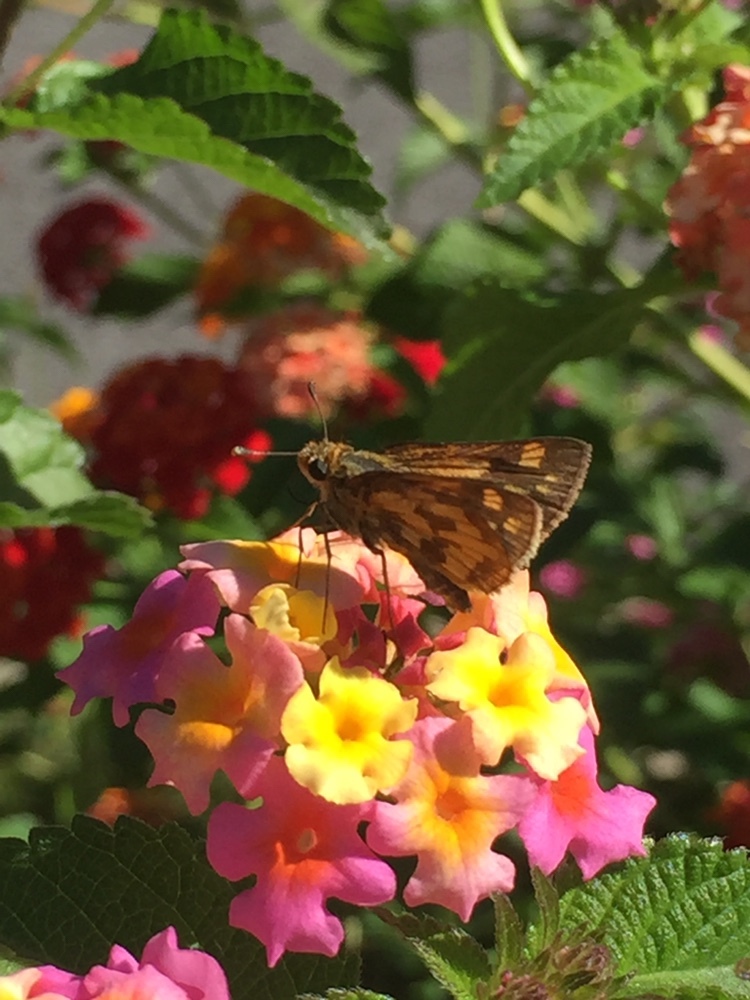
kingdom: Animalia
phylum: Arthropoda
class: Insecta
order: Lepidoptera
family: Hesperiidae
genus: Polites
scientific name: Polites coras
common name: Peck's skipper
